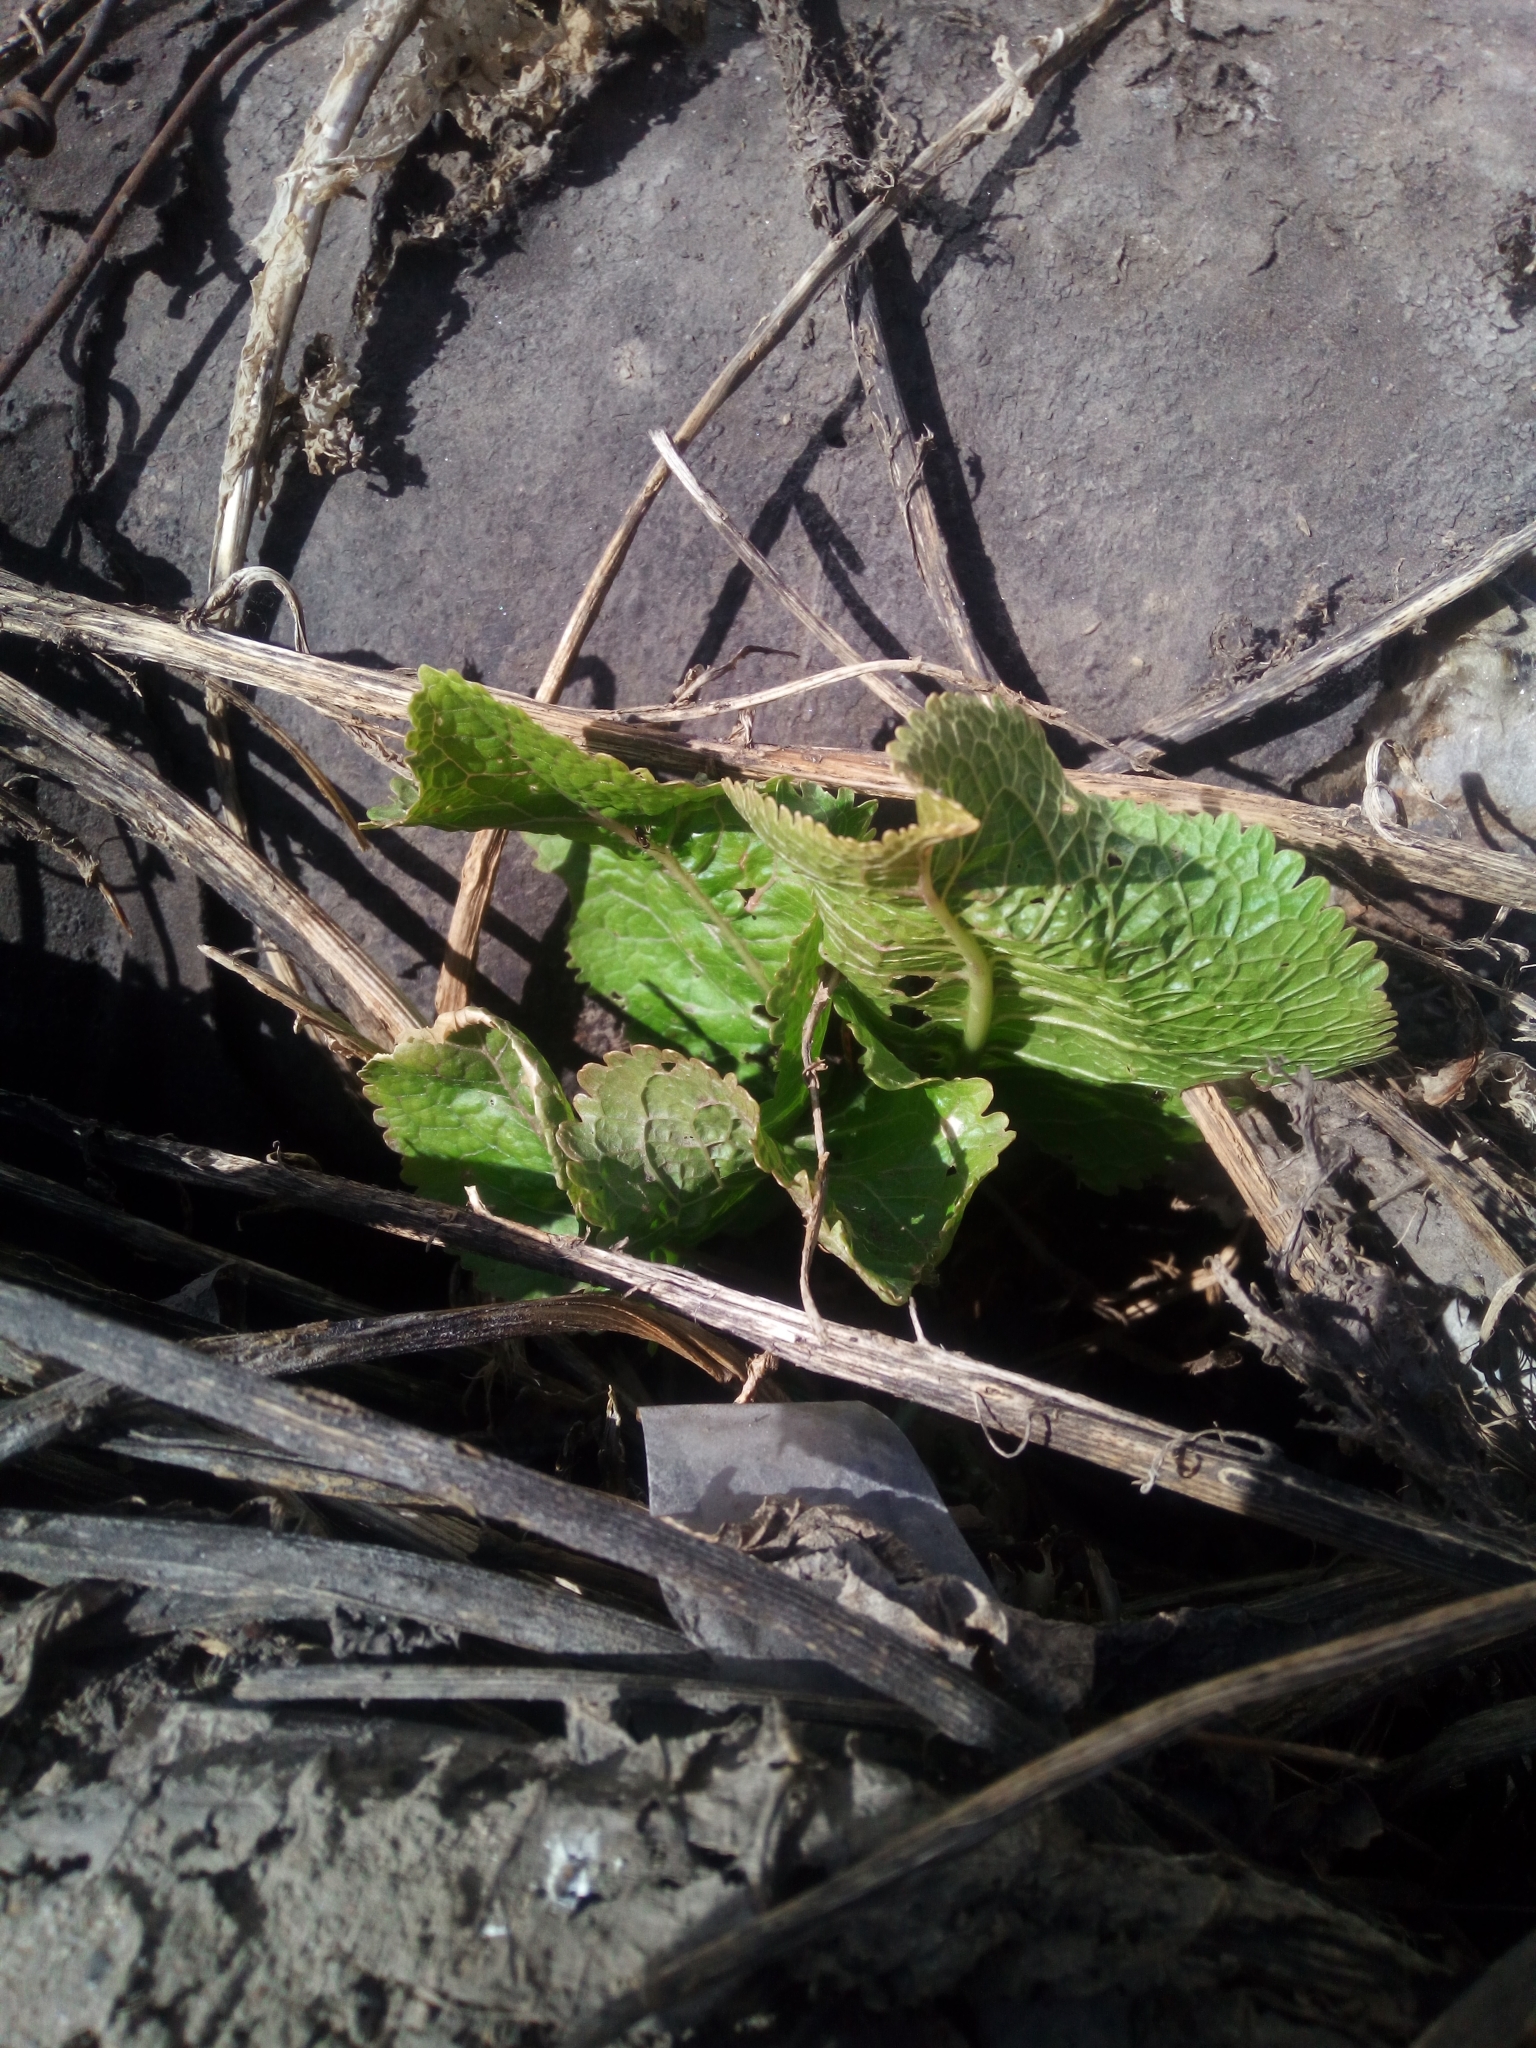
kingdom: Plantae
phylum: Tracheophyta
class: Magnoliopsida
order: Brassicales
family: Brassicaceae
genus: Armoracia
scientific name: Armoracia rusticana
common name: Horseradish
